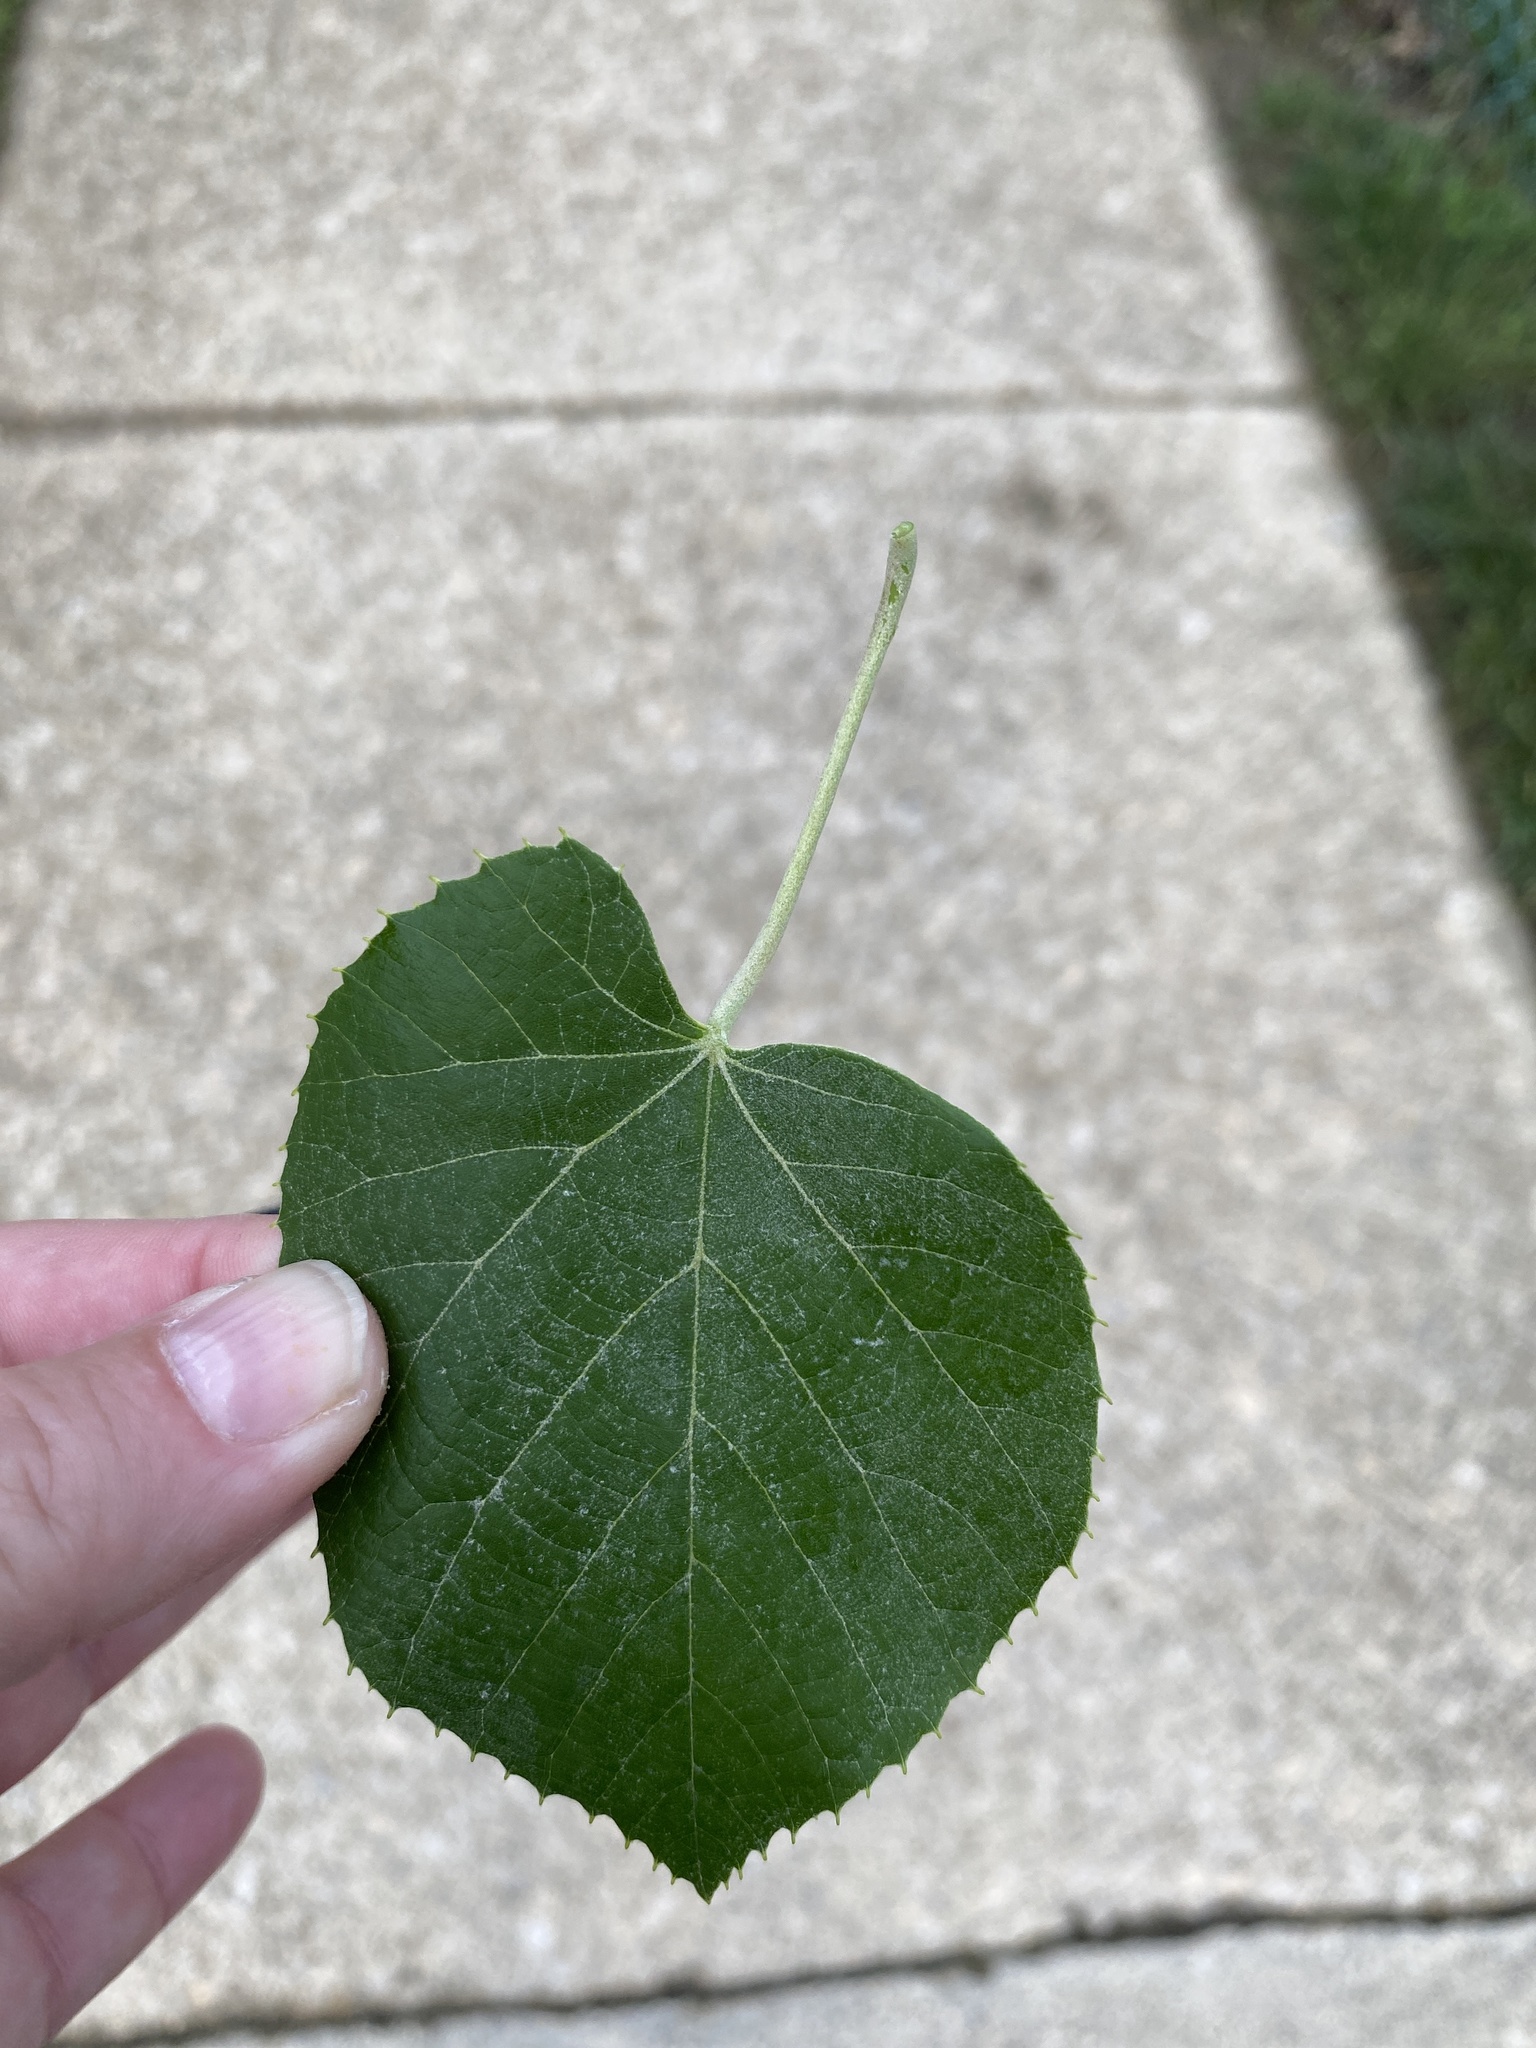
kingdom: Plantae
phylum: Tracheophyta
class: Magnoliopsida
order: Malvales
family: Malvaceae
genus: Tilia
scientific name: Tilia americana
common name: Basswood
